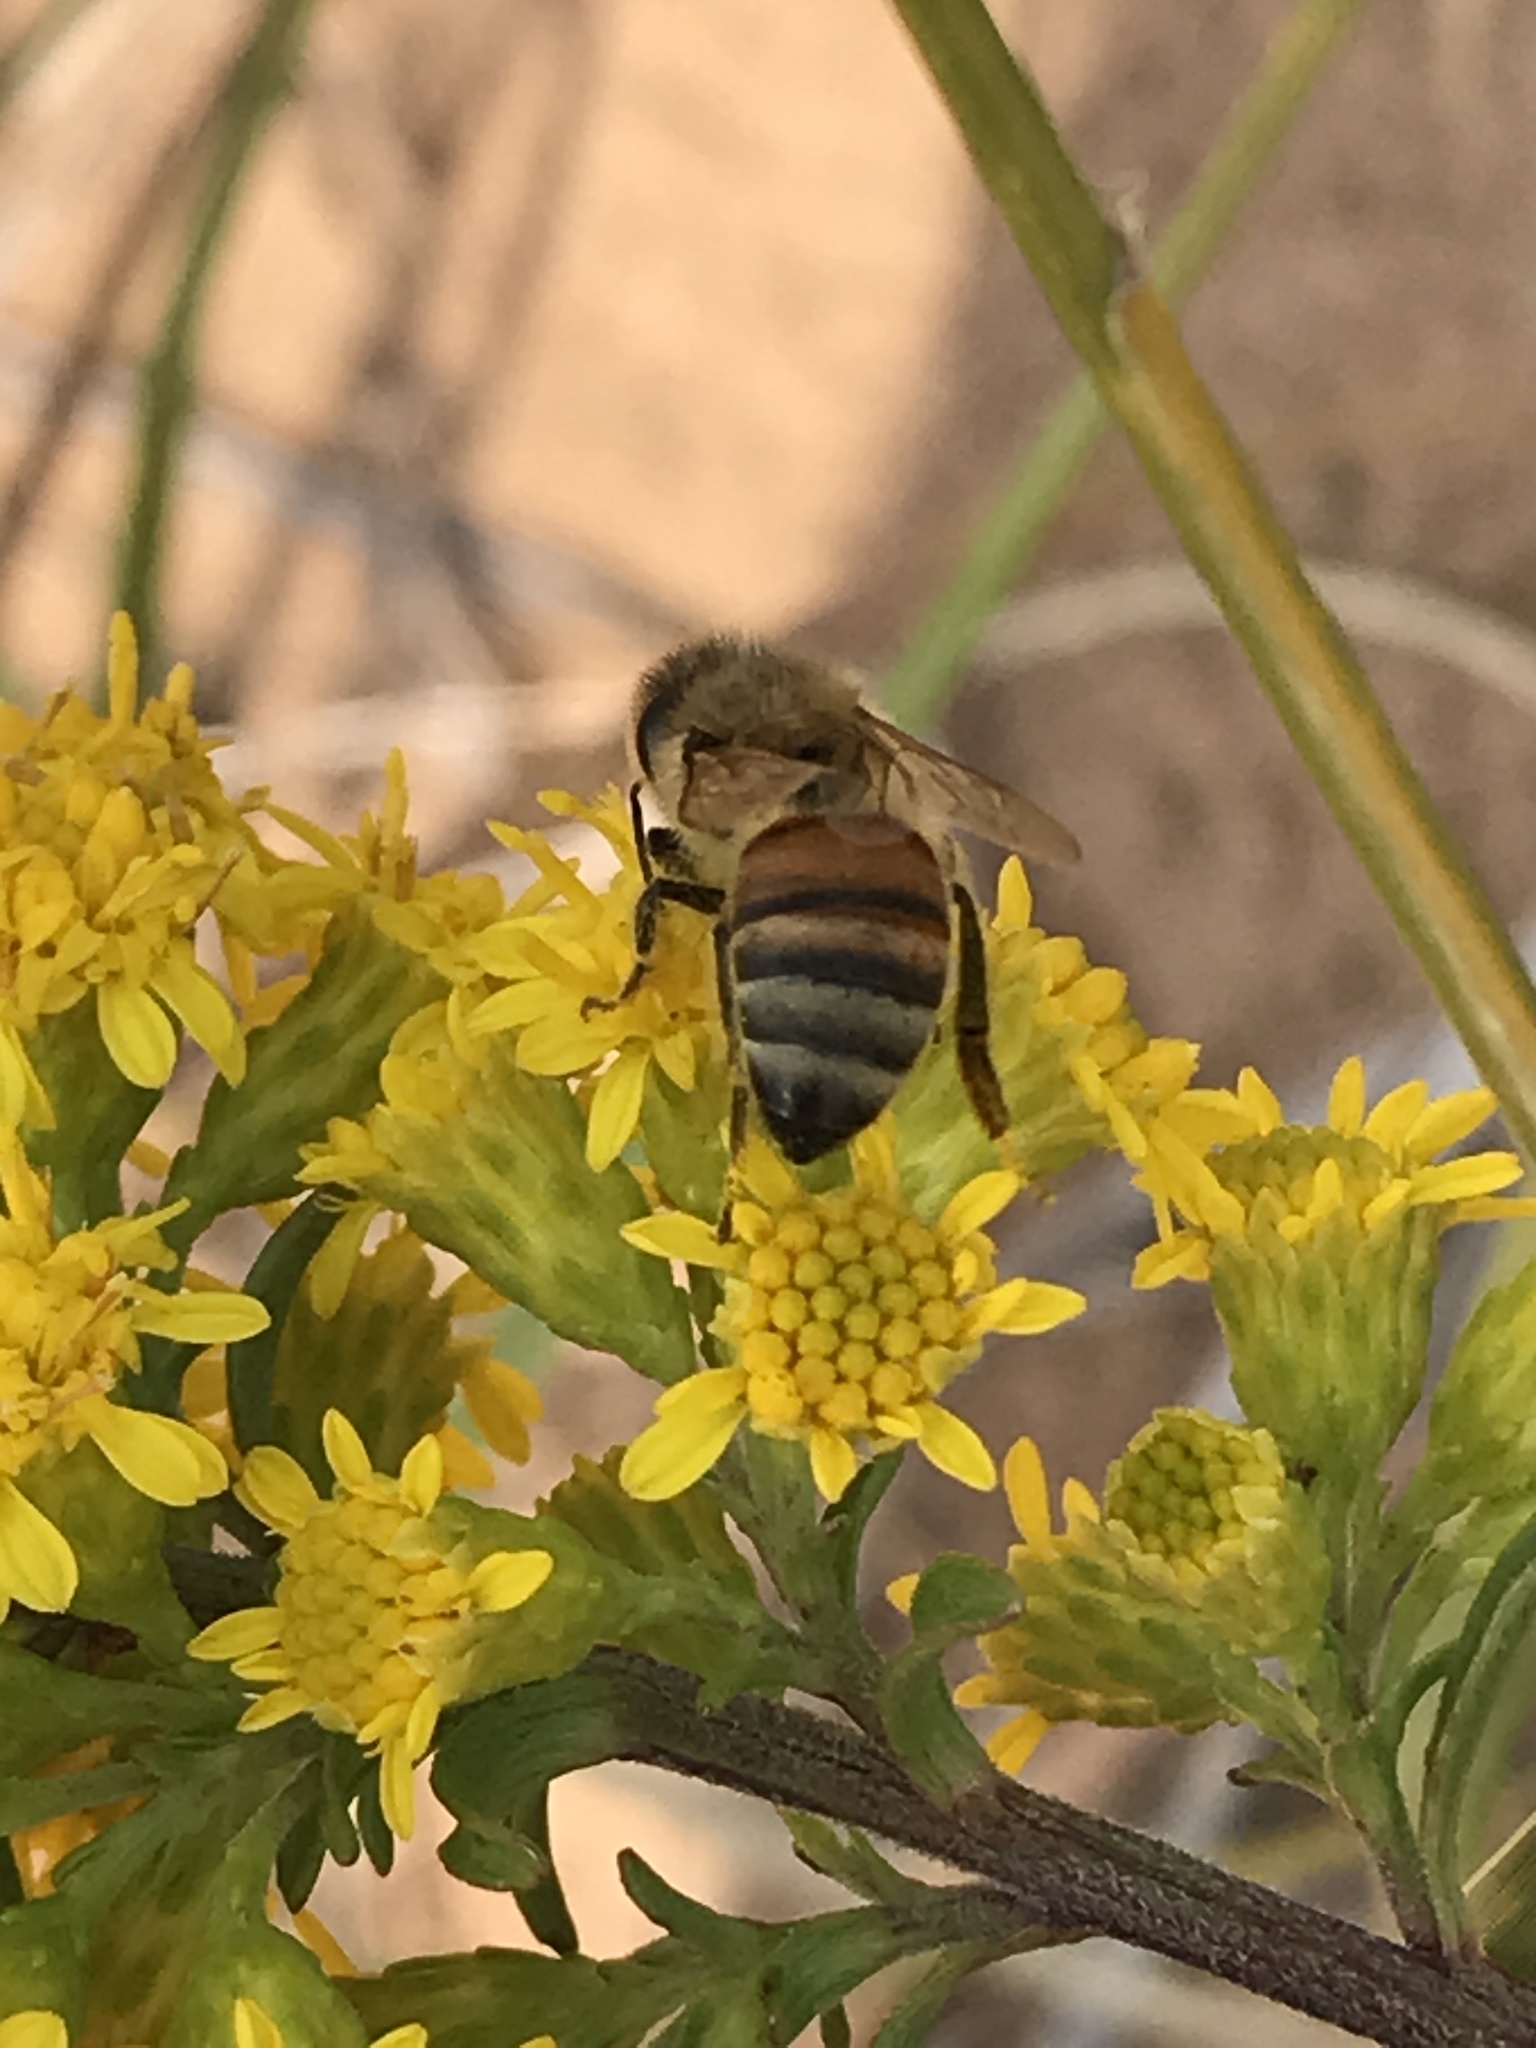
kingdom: Animalia
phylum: Arthropoda
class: Insecta
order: Hymenoptera
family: Apidae
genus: Apis
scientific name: Apis mellifera
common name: Honey bee
